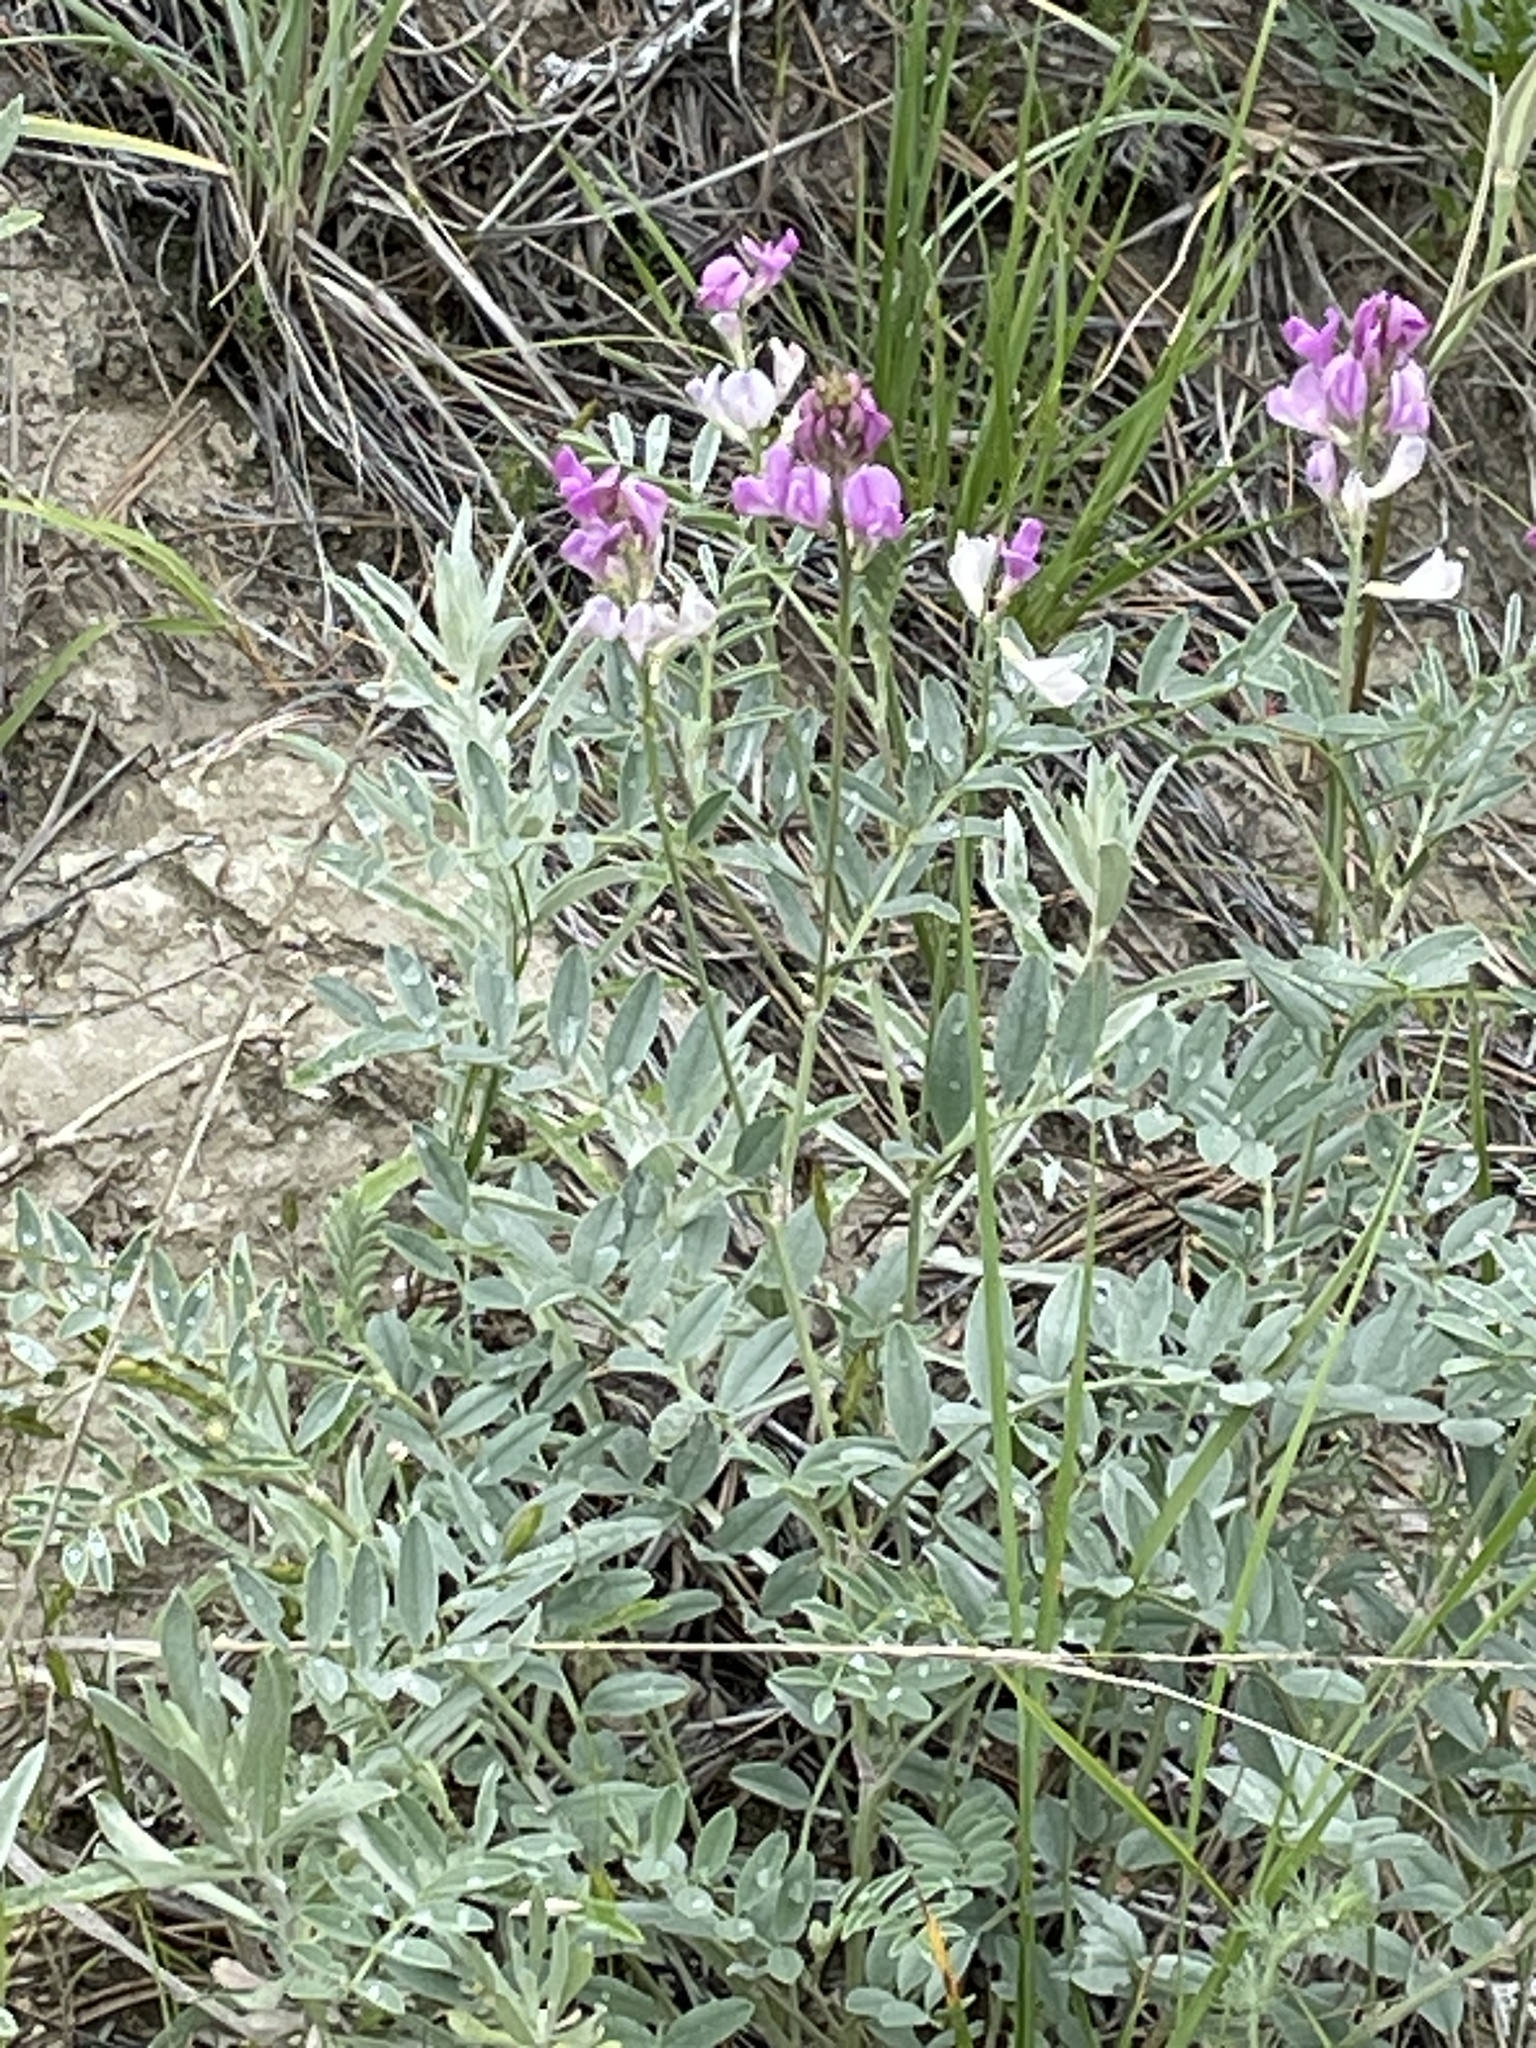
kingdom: Plantae
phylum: Tracheophyta
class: Magnoliopsida
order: Fabales
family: Fabaceae
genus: Hedysarum
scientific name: Hedysarum boreale
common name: Northern sweet-vetch
